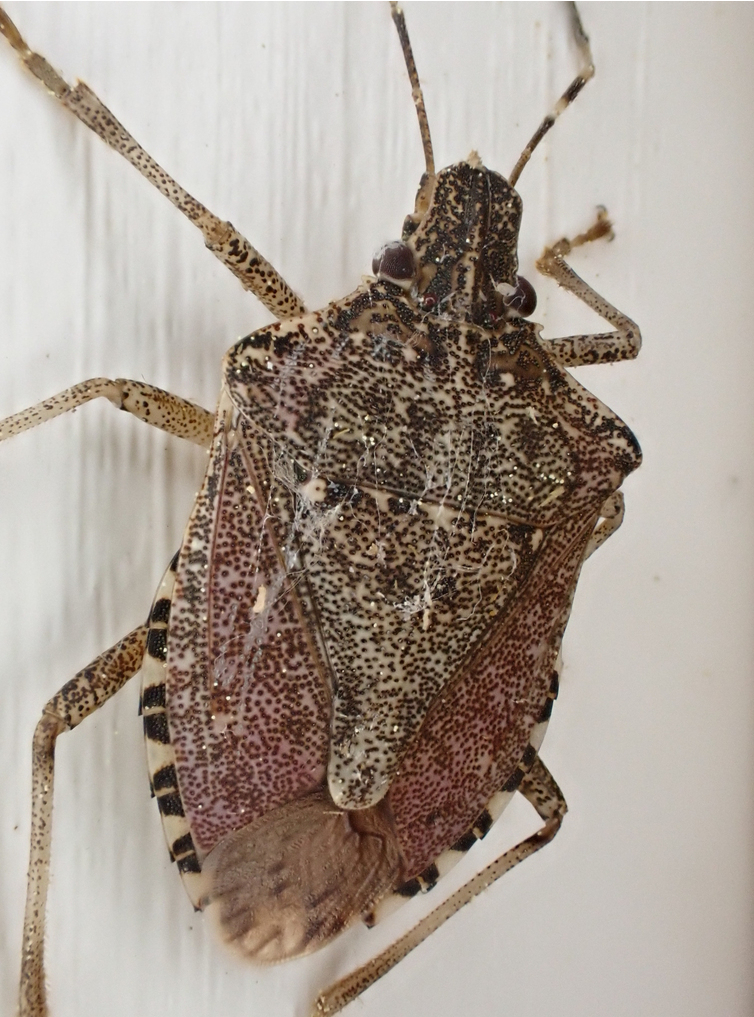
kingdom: Animalia
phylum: Arthropoda
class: Insecta
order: Hemiptera
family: Pentatomidae
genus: Halyomorpha
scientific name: Halyomorpha halys
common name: Brown marmorated stink bug
